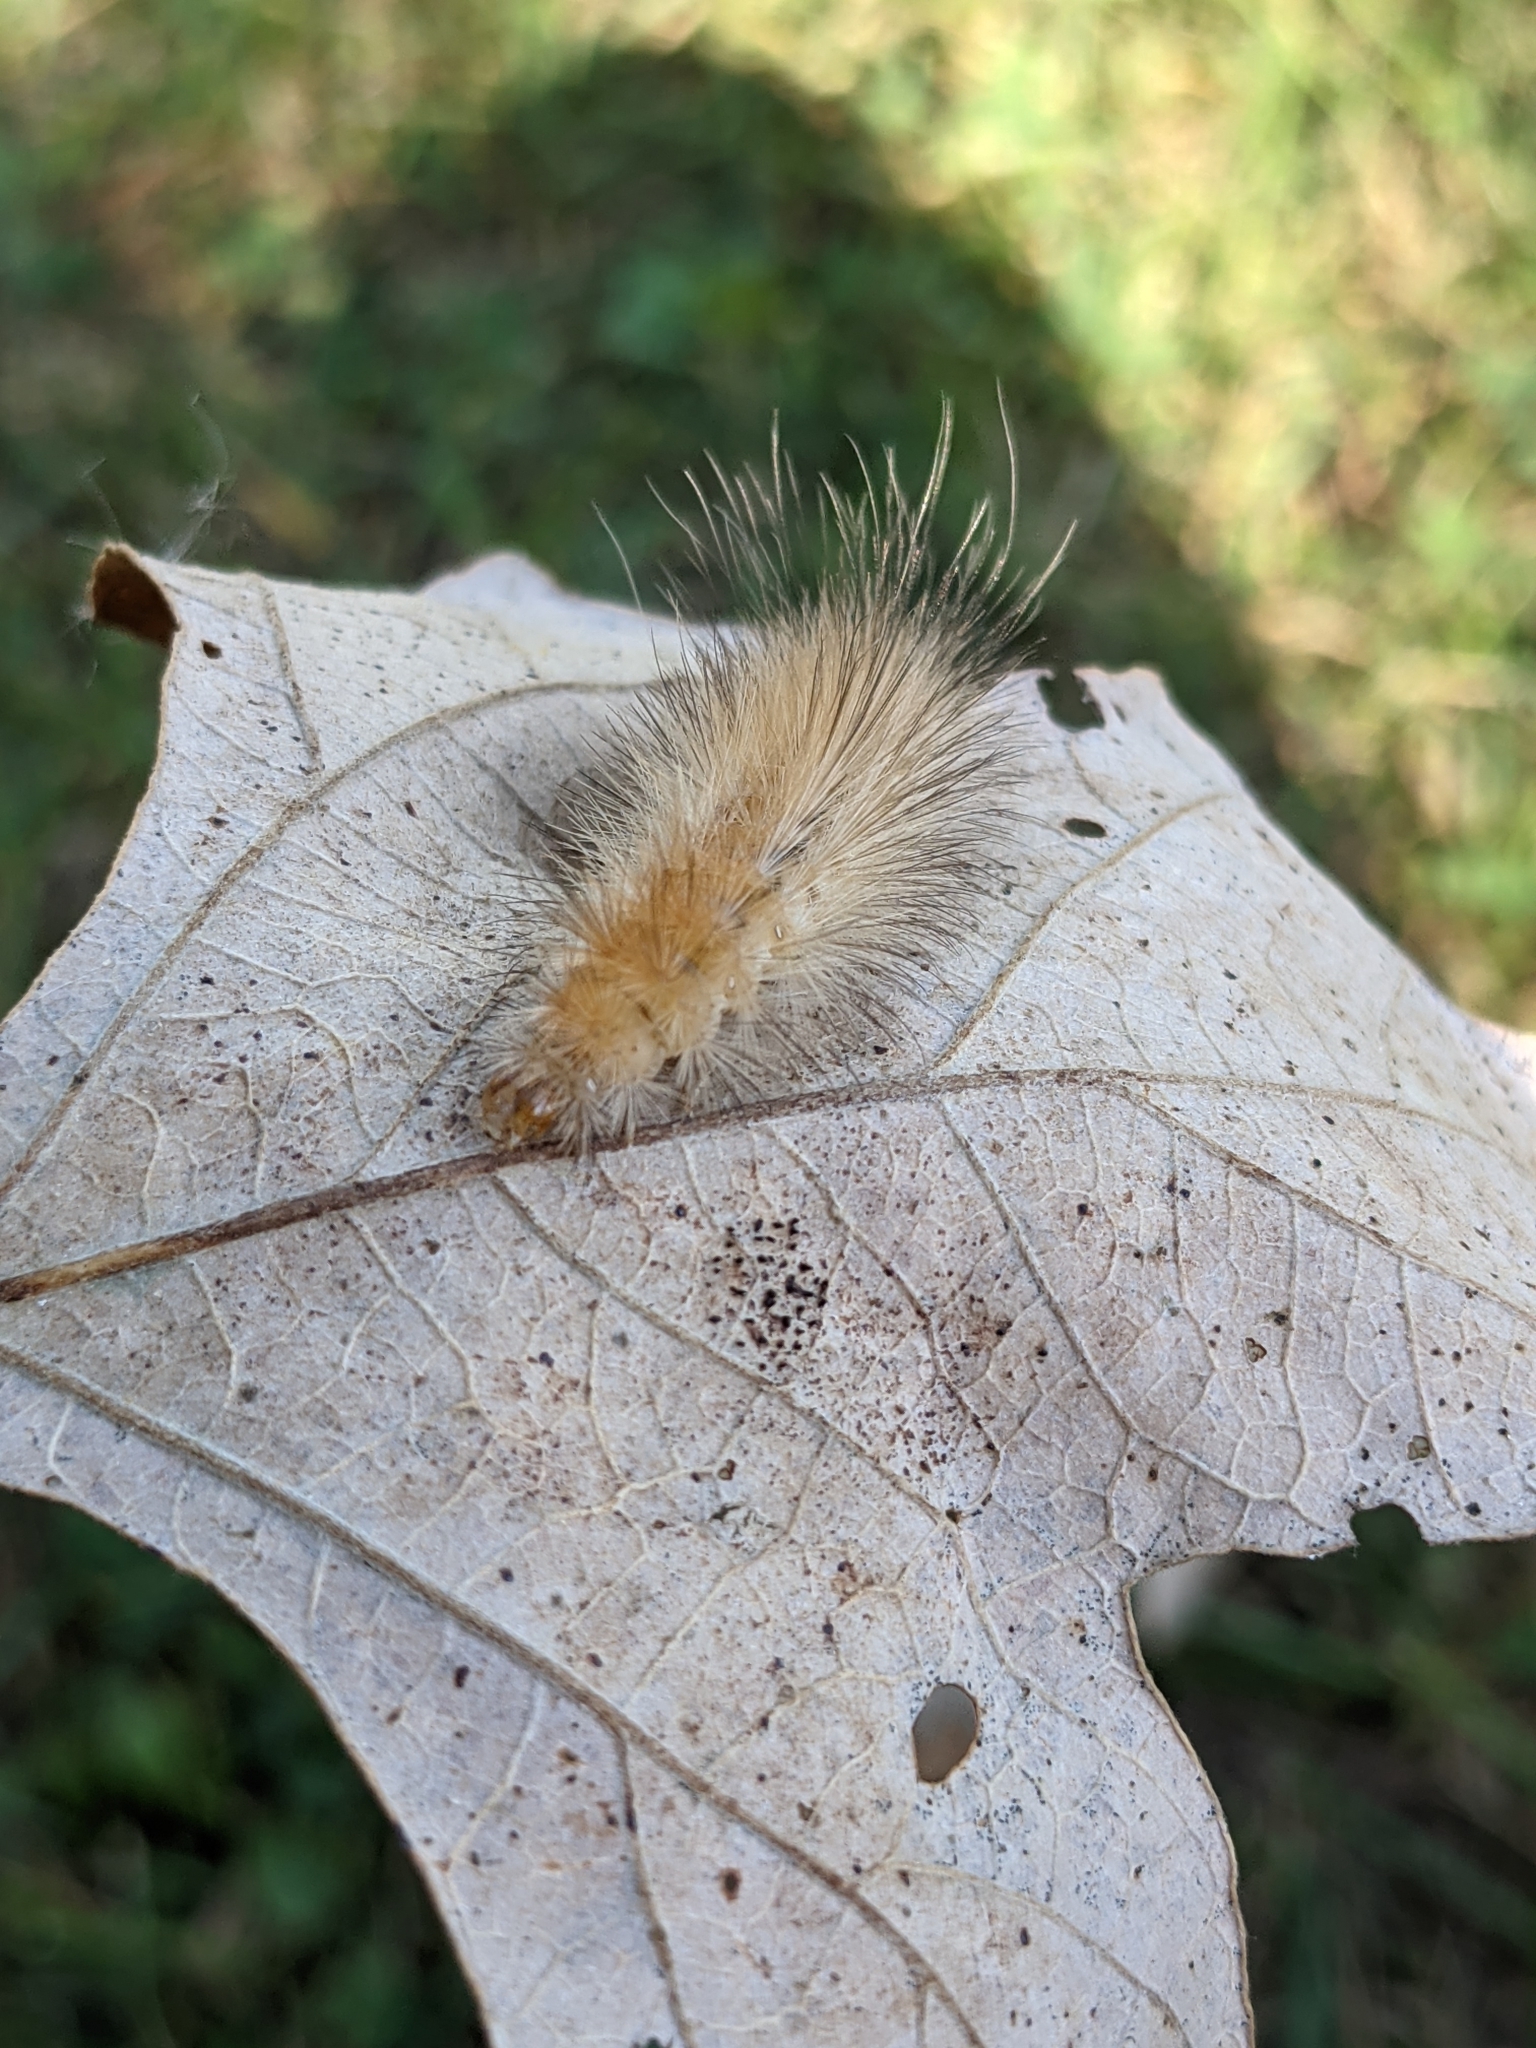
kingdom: Animalia
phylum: Arthropoda
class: Insecta
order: Lepidoptera
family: Erebidae
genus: Spilosoma
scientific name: Spilosoma virginica
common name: Virginia tiger moth
